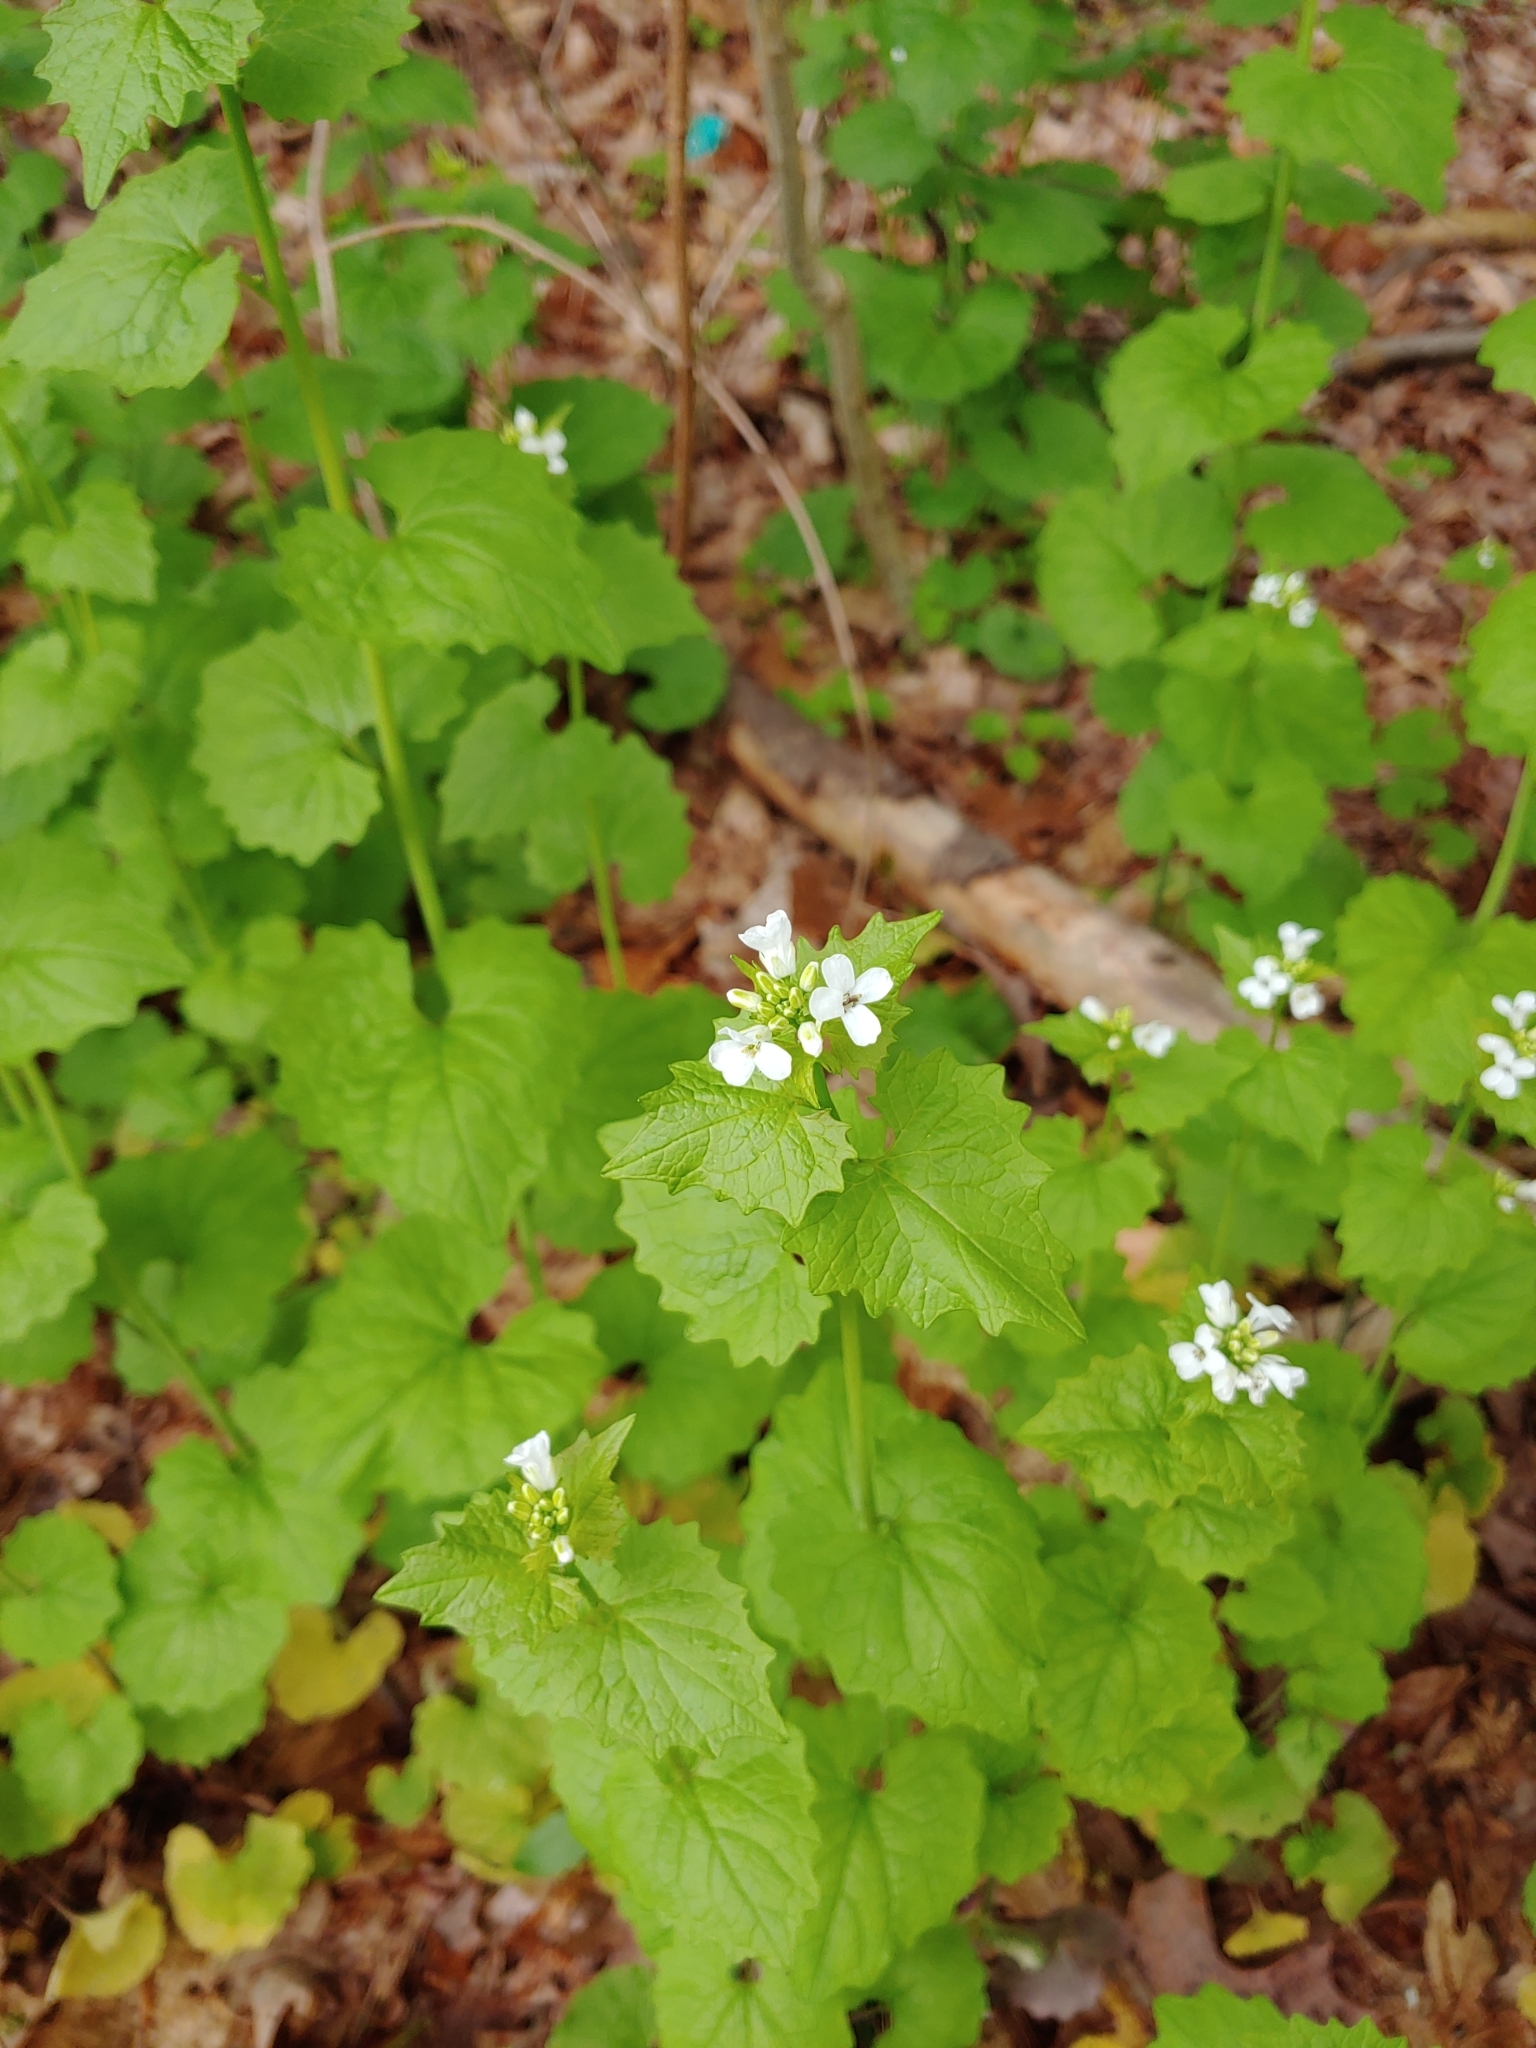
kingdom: Plantae
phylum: Tracheophyta
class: Magnoliopsida
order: Brassicales
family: Brassicaceae
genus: Alliaria
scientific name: Alliaria petiolata
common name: Garlic mustard
